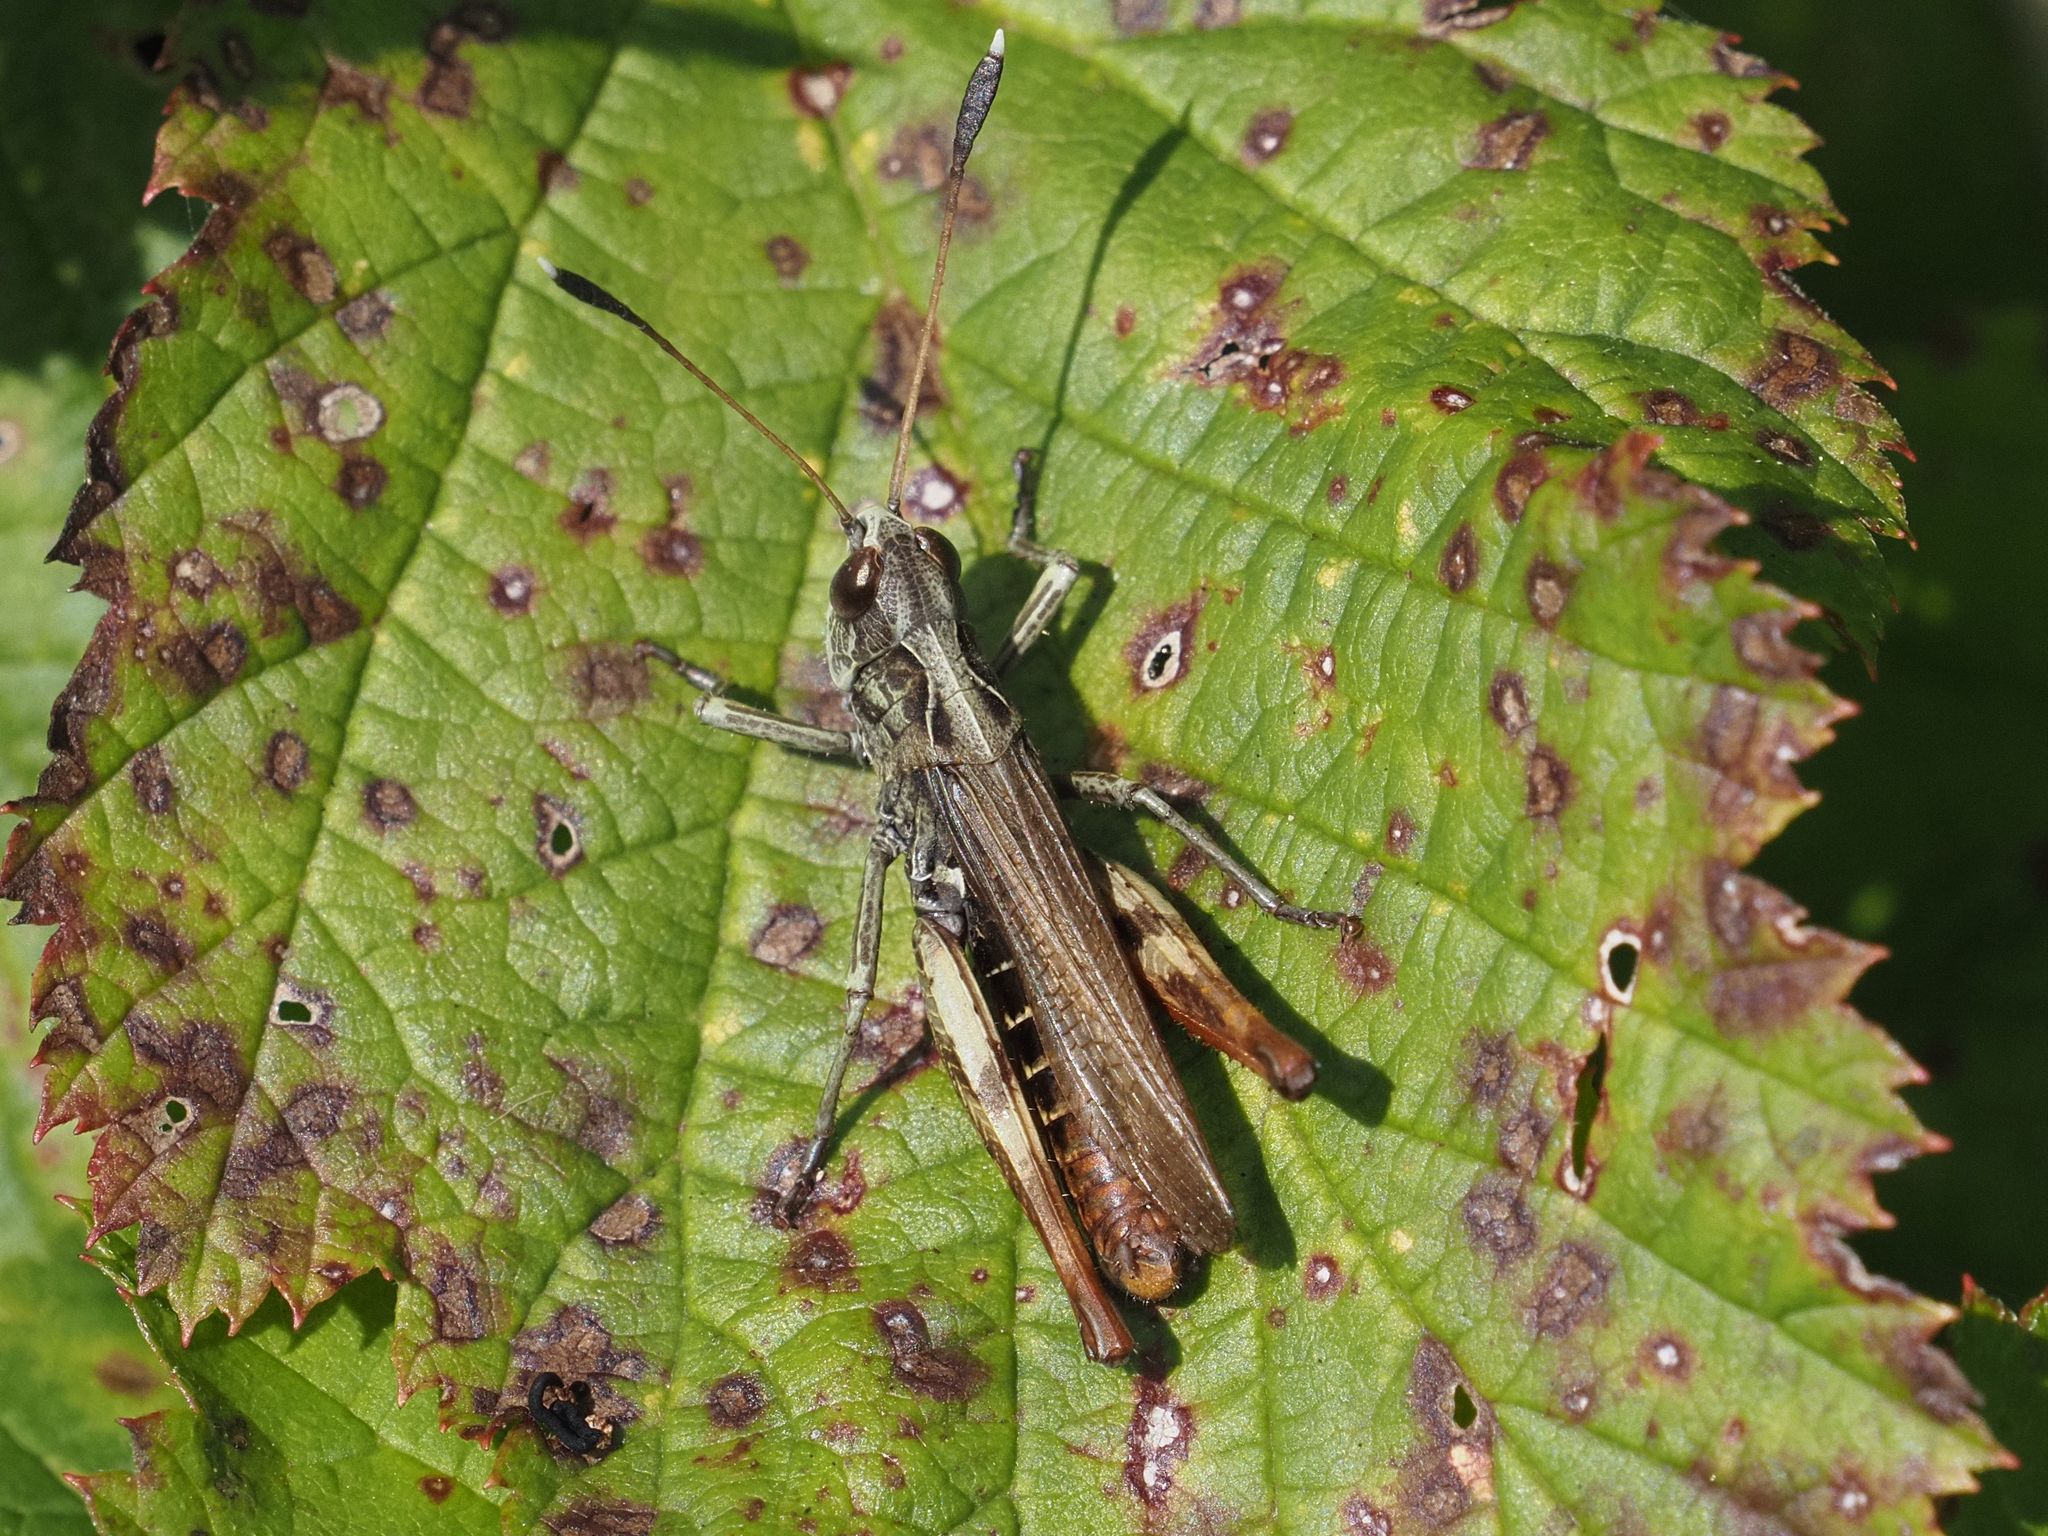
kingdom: Animalia
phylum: Arthropoda
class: Insecta
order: Orthoptera
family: Acrididae
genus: Gomphocerippus
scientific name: Gomphocerippus rufus
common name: Rufous grasshopper
